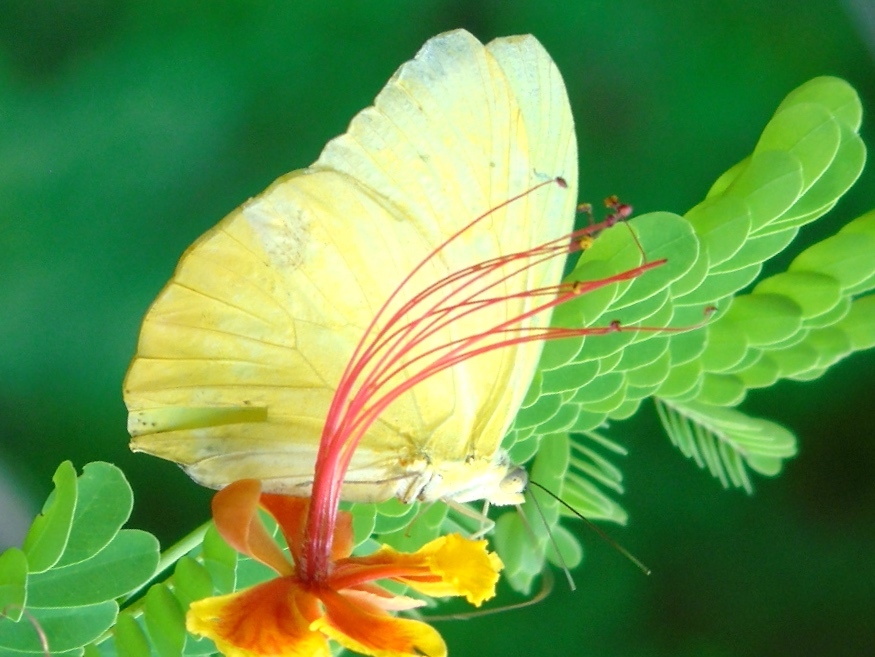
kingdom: Animalia
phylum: Arthropoda
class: Insecta
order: Lepidoptera
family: Pieridae
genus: Phoebis
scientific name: Phoebis
